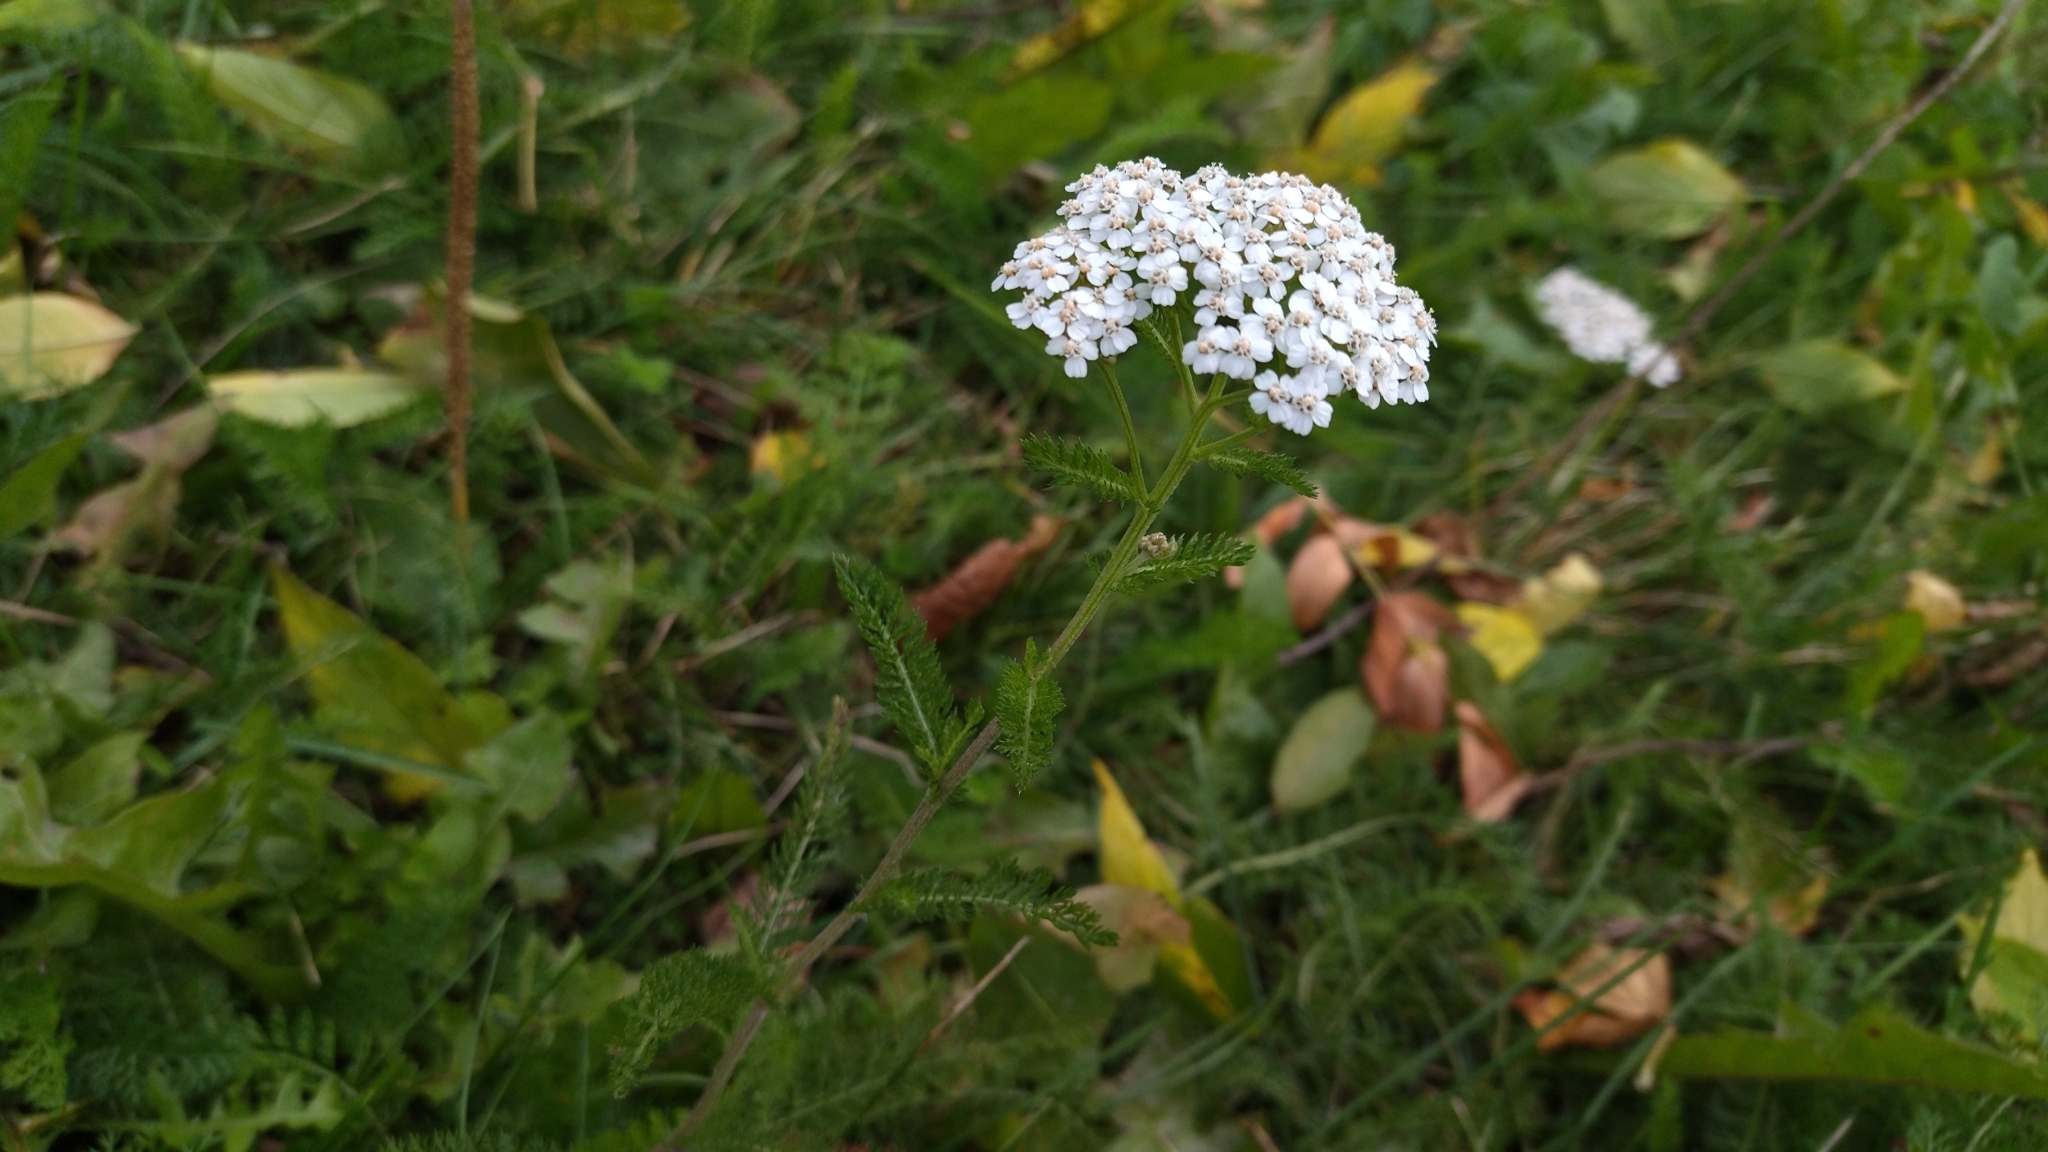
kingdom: Plantae
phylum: Tracheophyta
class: Magnoliopsida
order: Asterales
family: Asteraceae
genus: Achillea
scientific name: Achillea millefolium
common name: Yarrow
